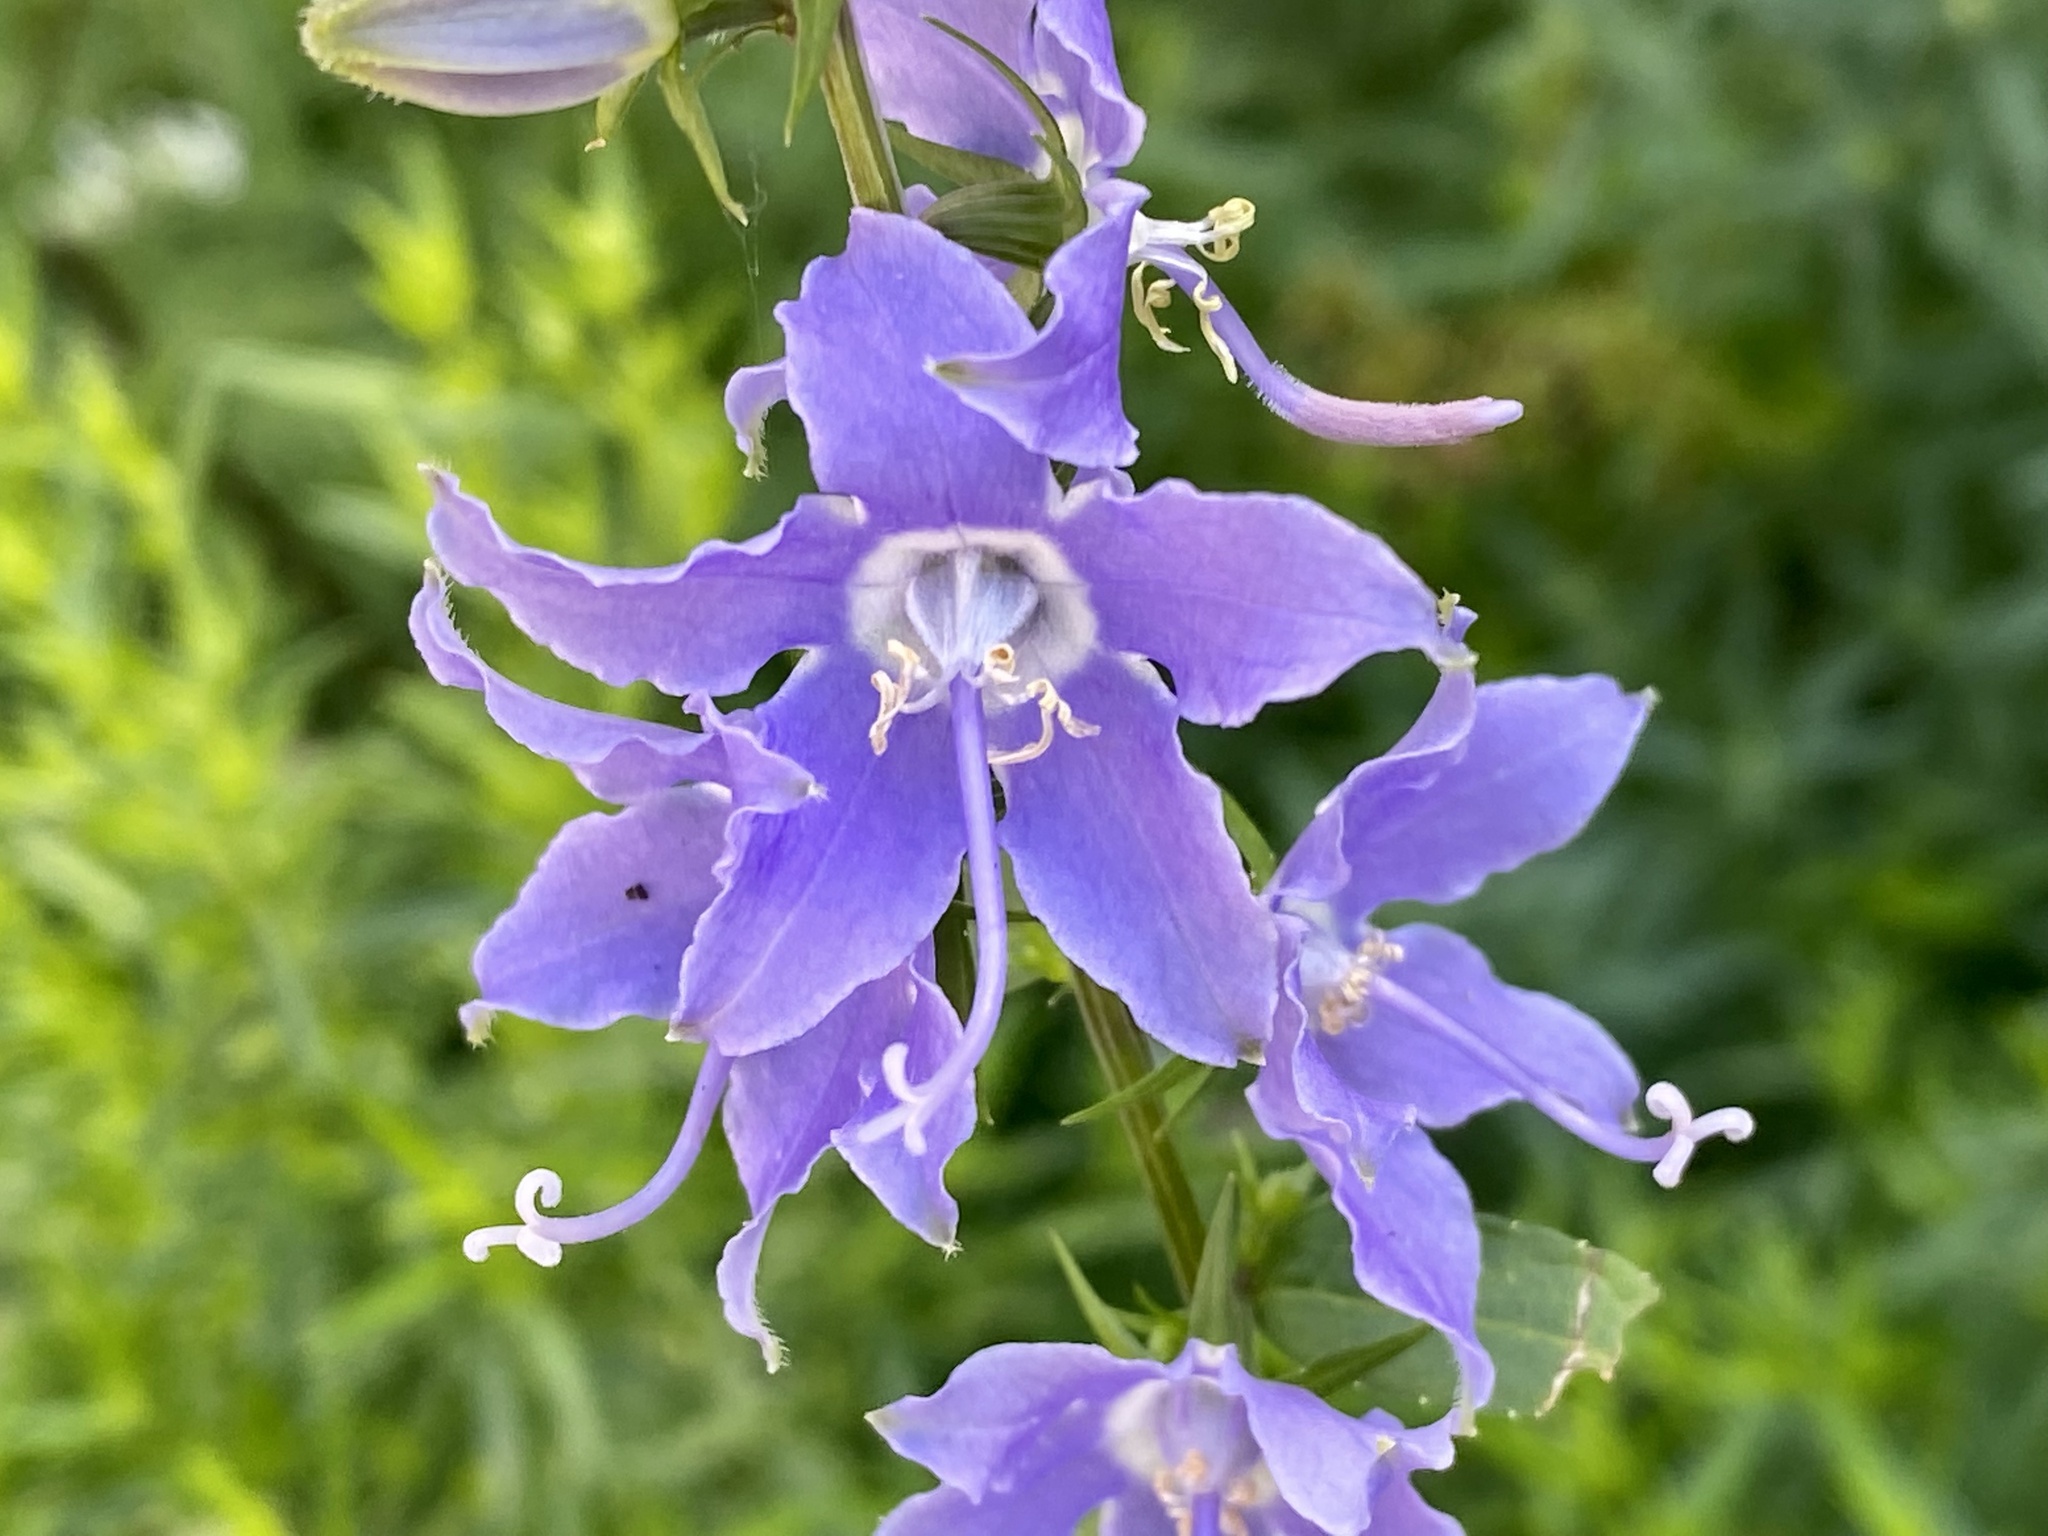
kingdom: Plantae
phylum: Tracheophyta
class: Magnoliopsida
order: Asterales
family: Campanulaceae
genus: Campanulastrum
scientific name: Campanulastrum americanum
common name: American bellflower
